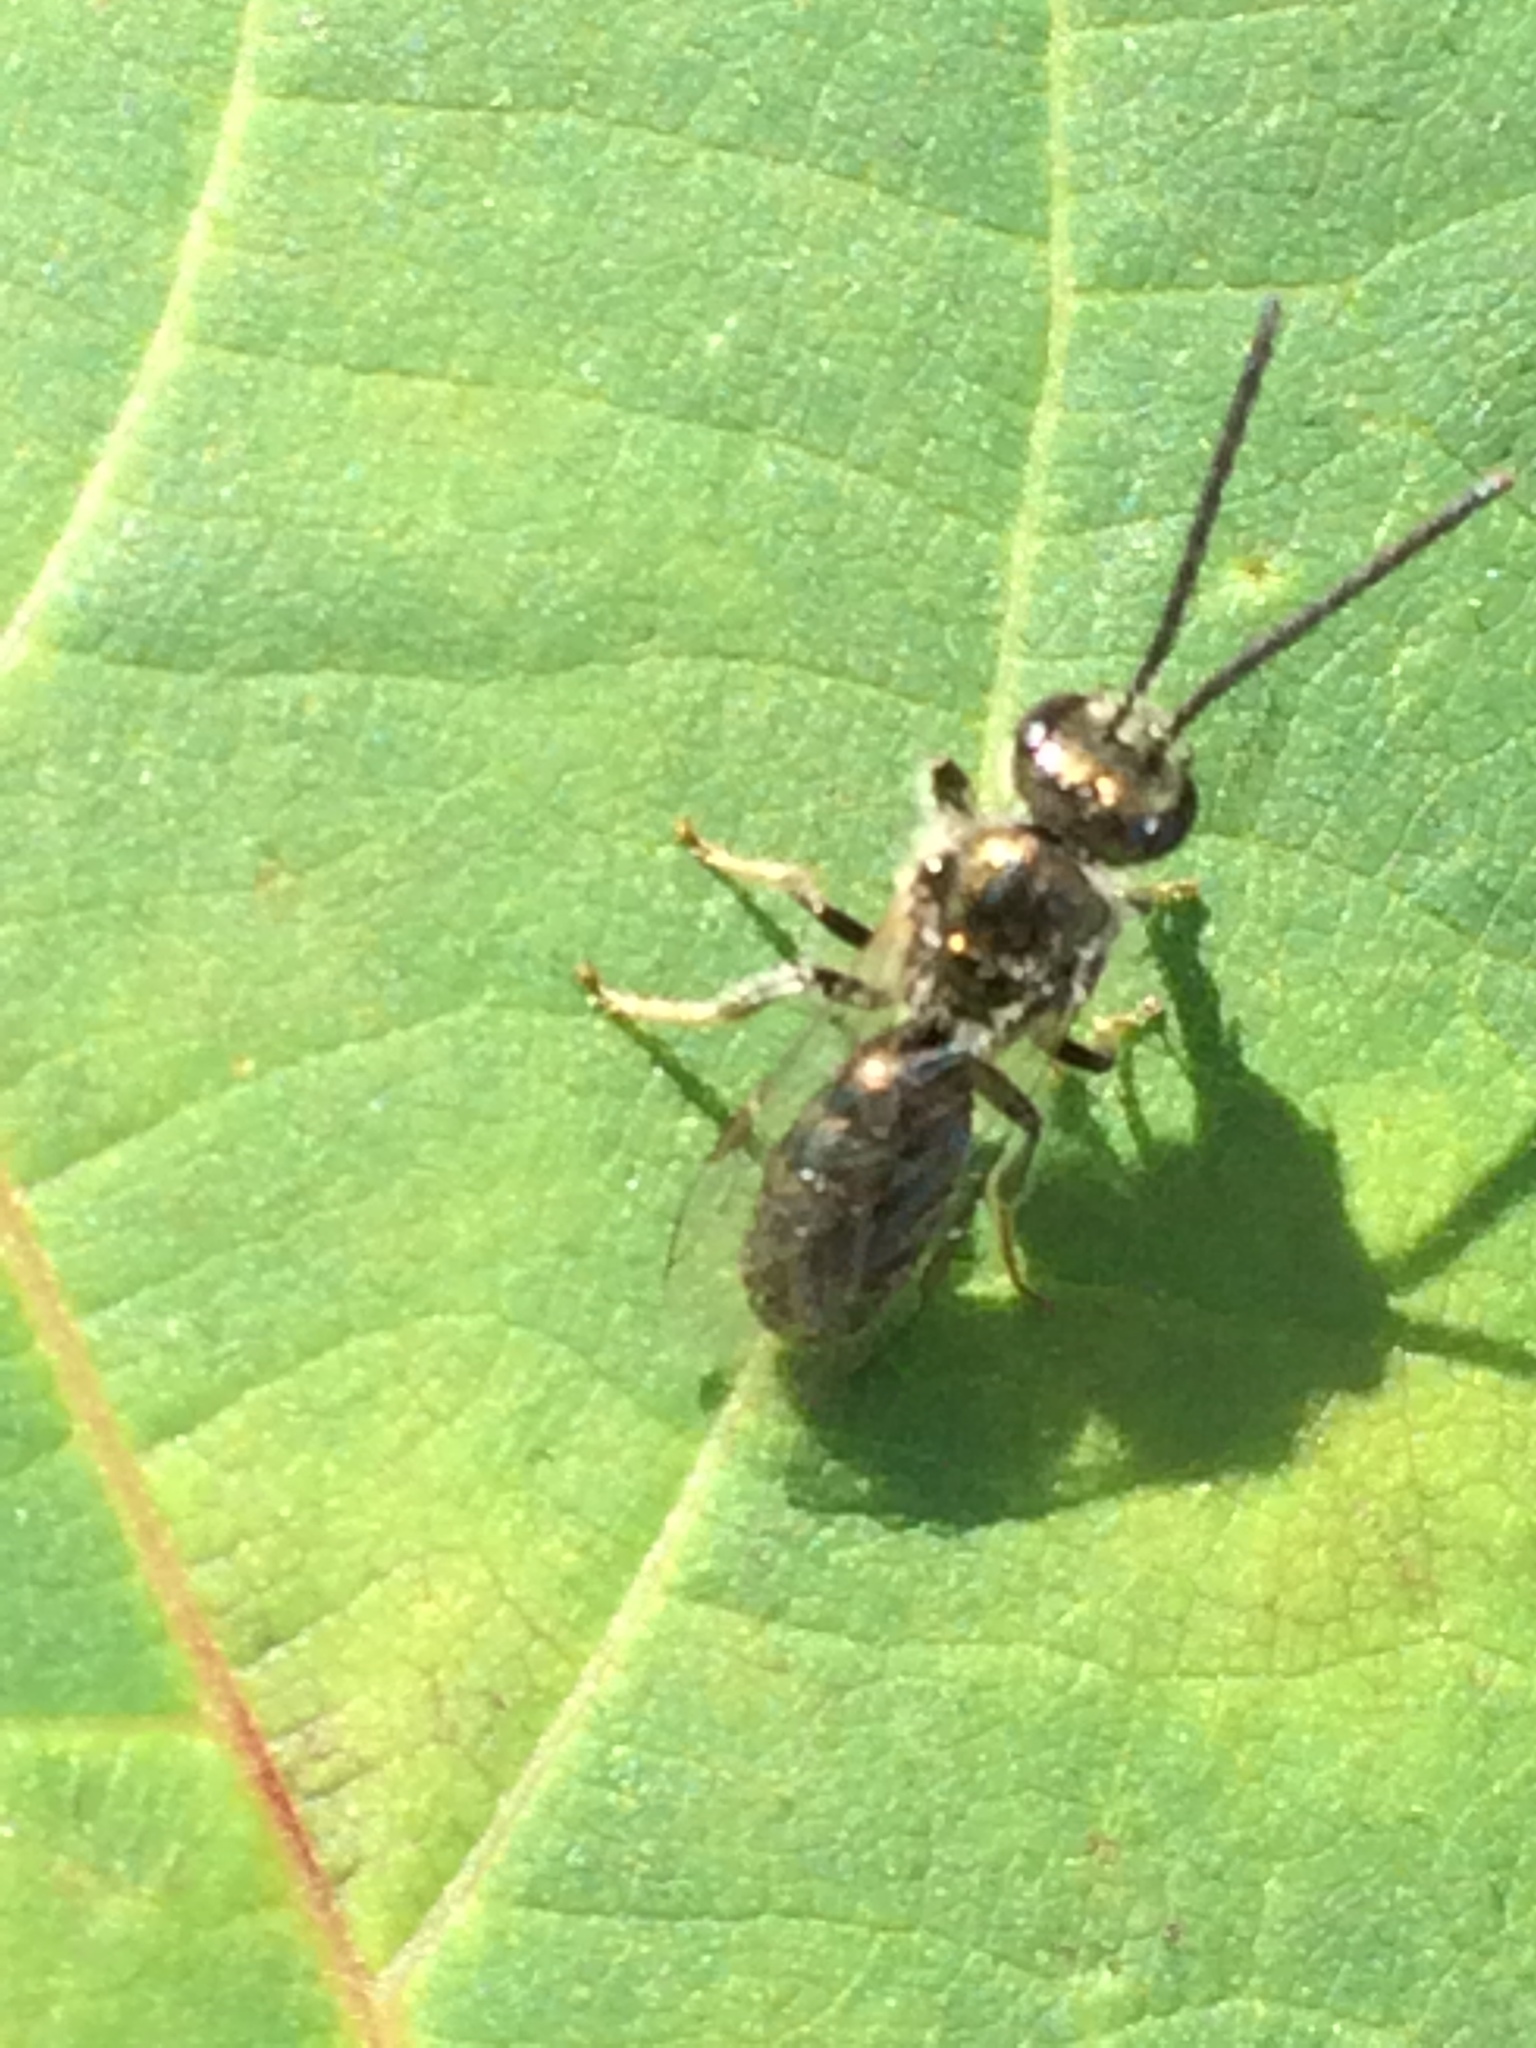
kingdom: Animalia
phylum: Arthropoda
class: Insecta
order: Hymenoptera
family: Halictidae
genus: Dialictus
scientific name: Dialictus
